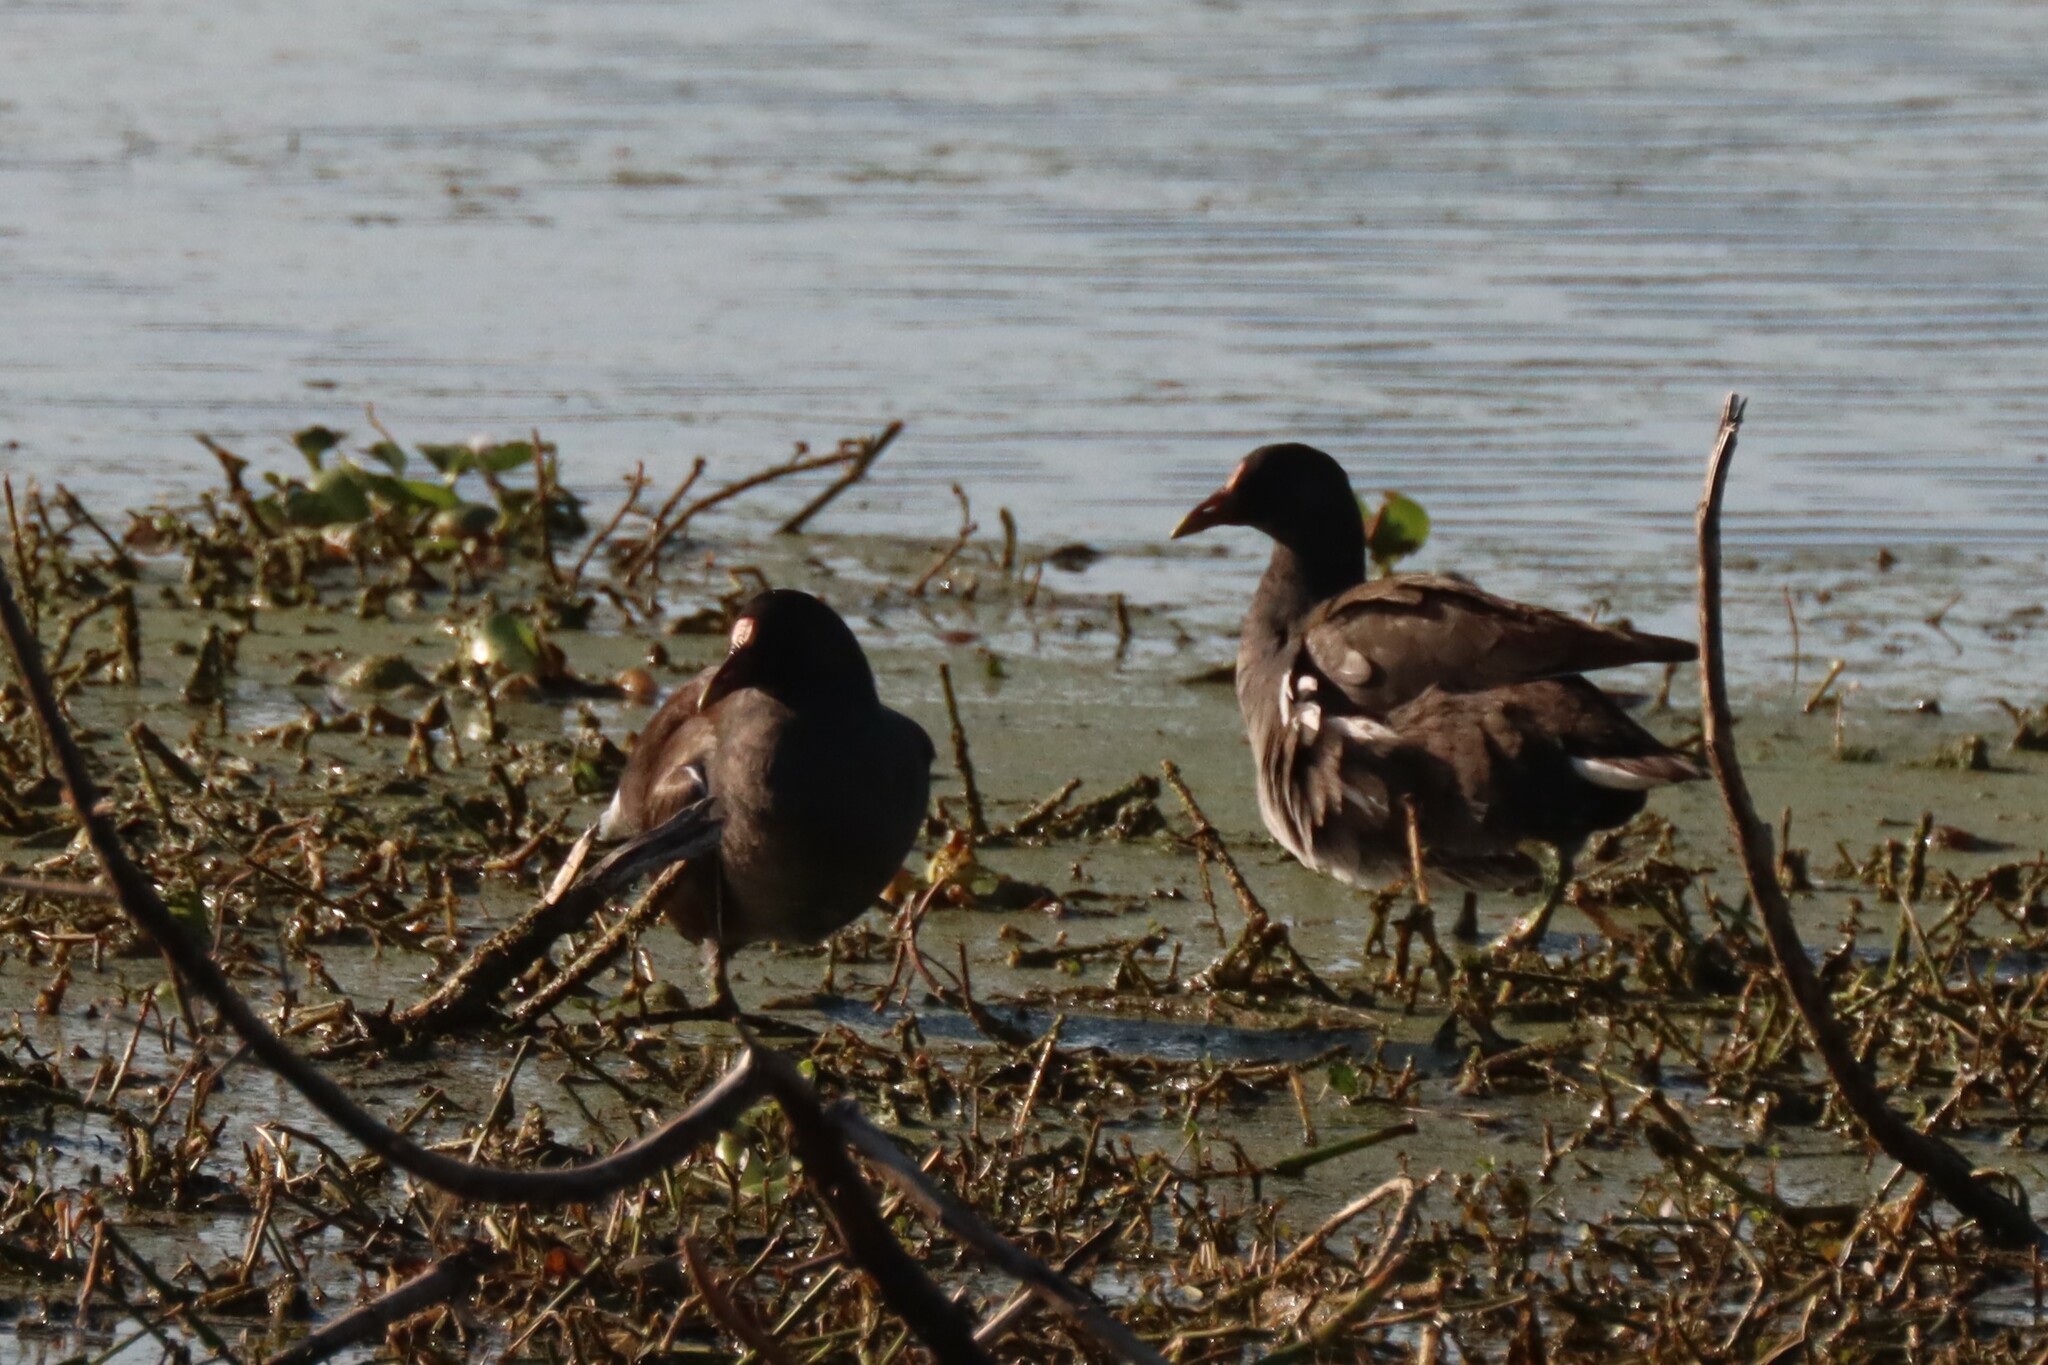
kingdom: Animalia
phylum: Chordata
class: Aves
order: Gruiformes
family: Rallidae
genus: Gallinula
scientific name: Gallinula chloropus
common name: Common moorhen
